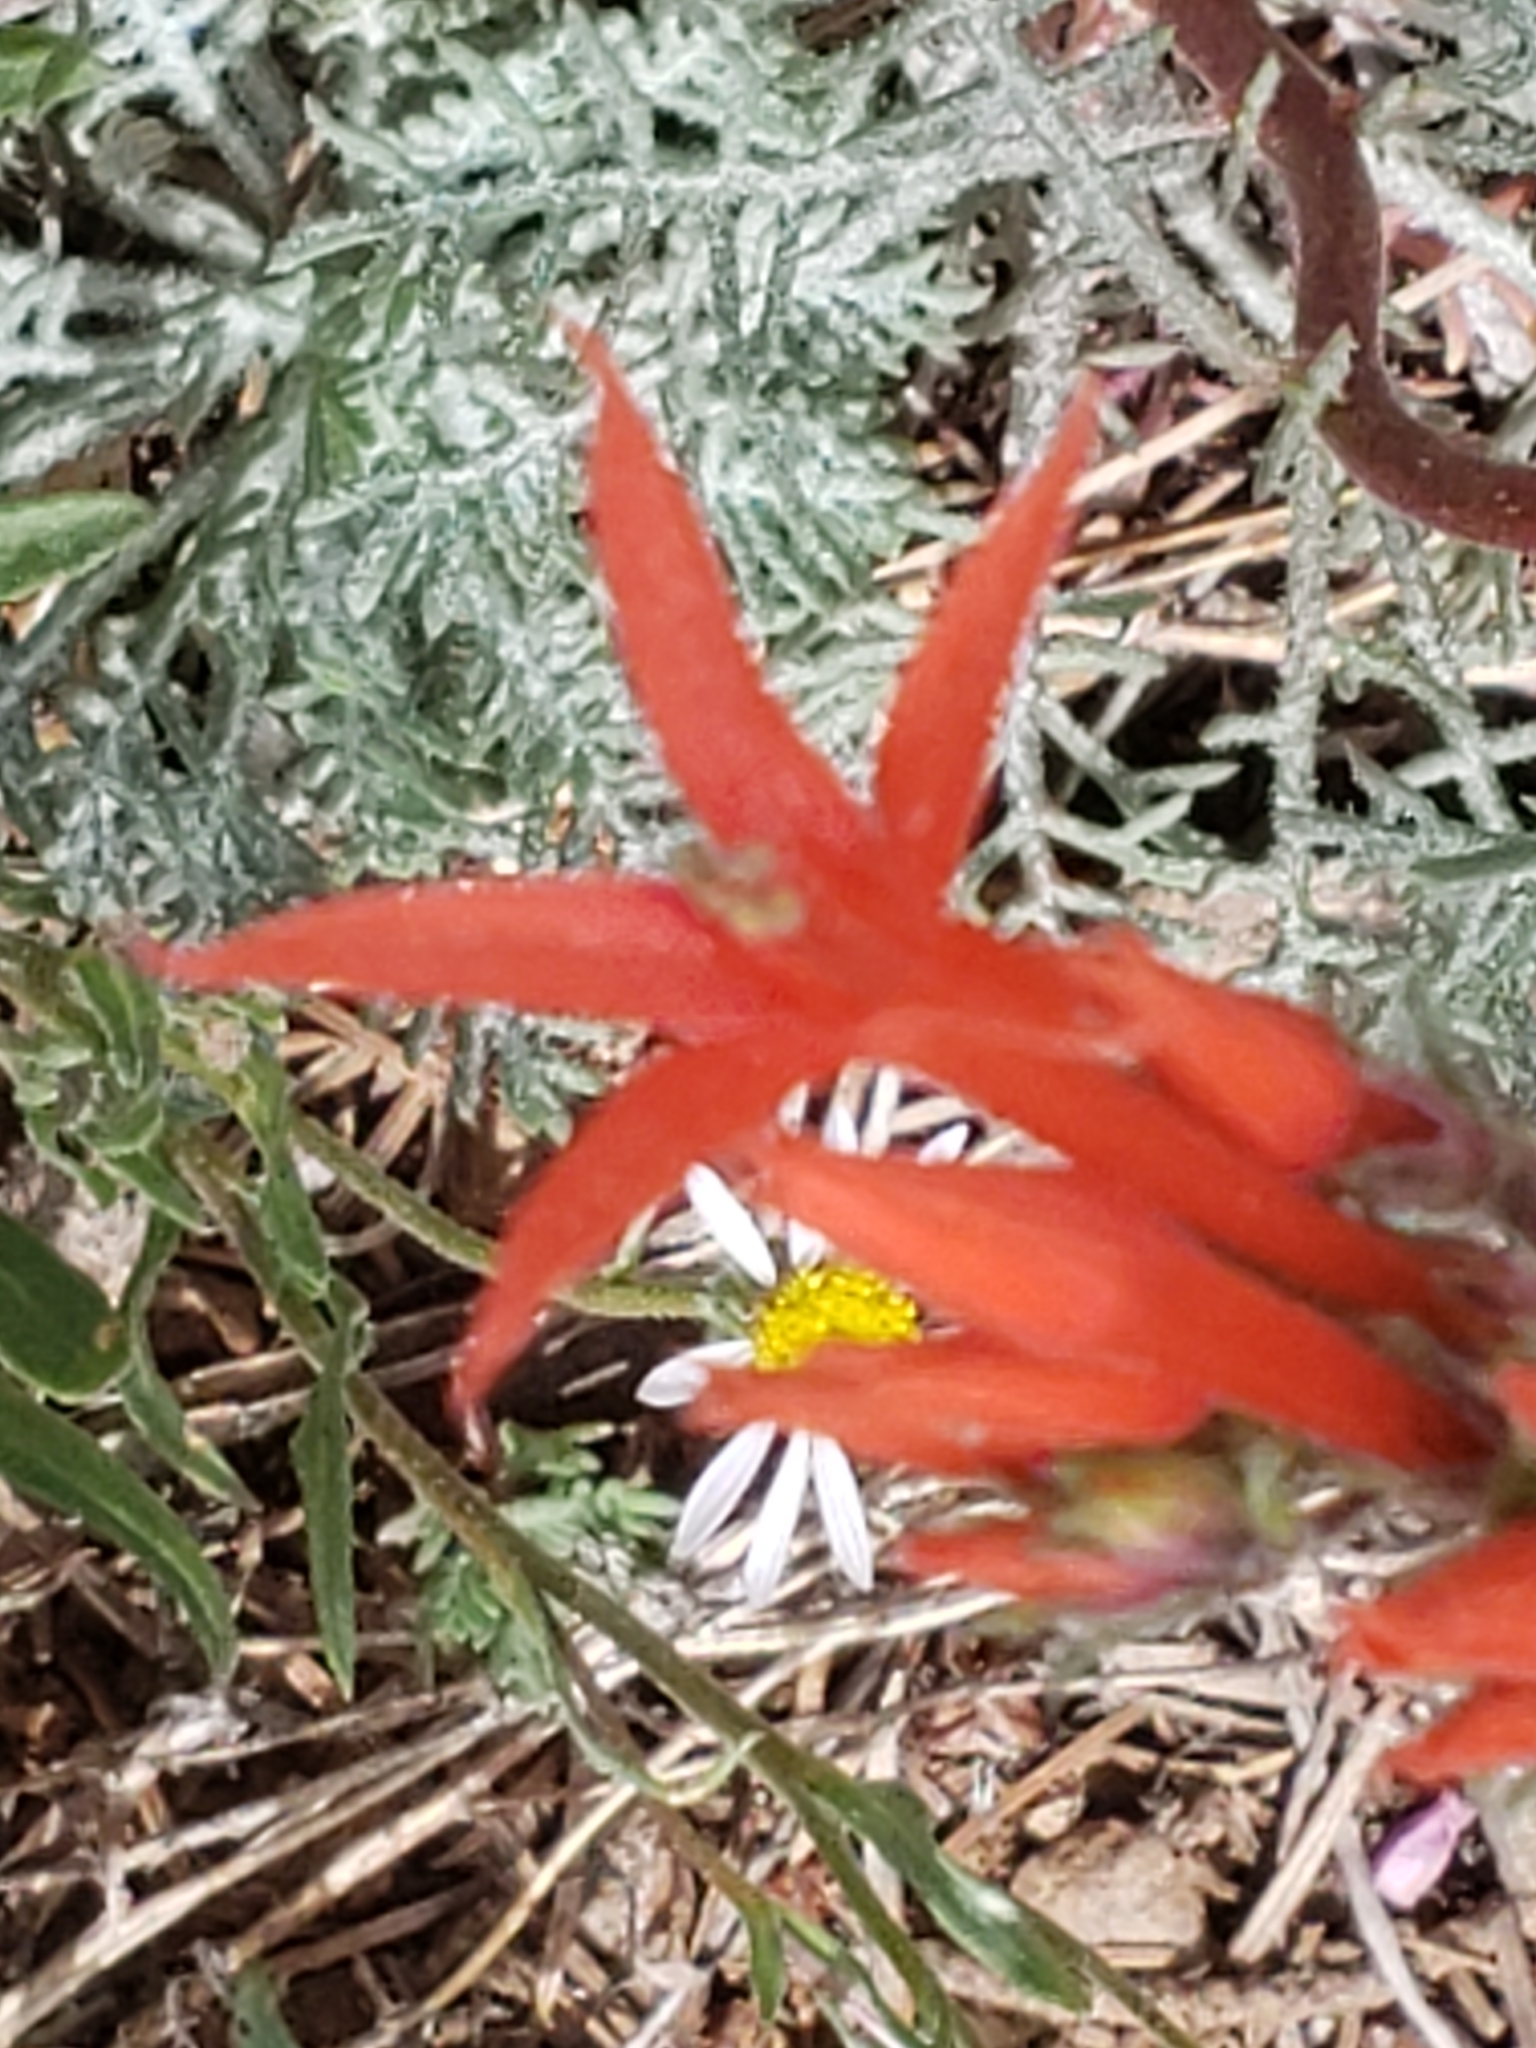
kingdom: Plantae
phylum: Tracheophyta
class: Magnoliopsida
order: Ericales
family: Polemoniaceae
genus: Ipomopsis
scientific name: Ipomopsis aggregata
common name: Scarlet gilia
